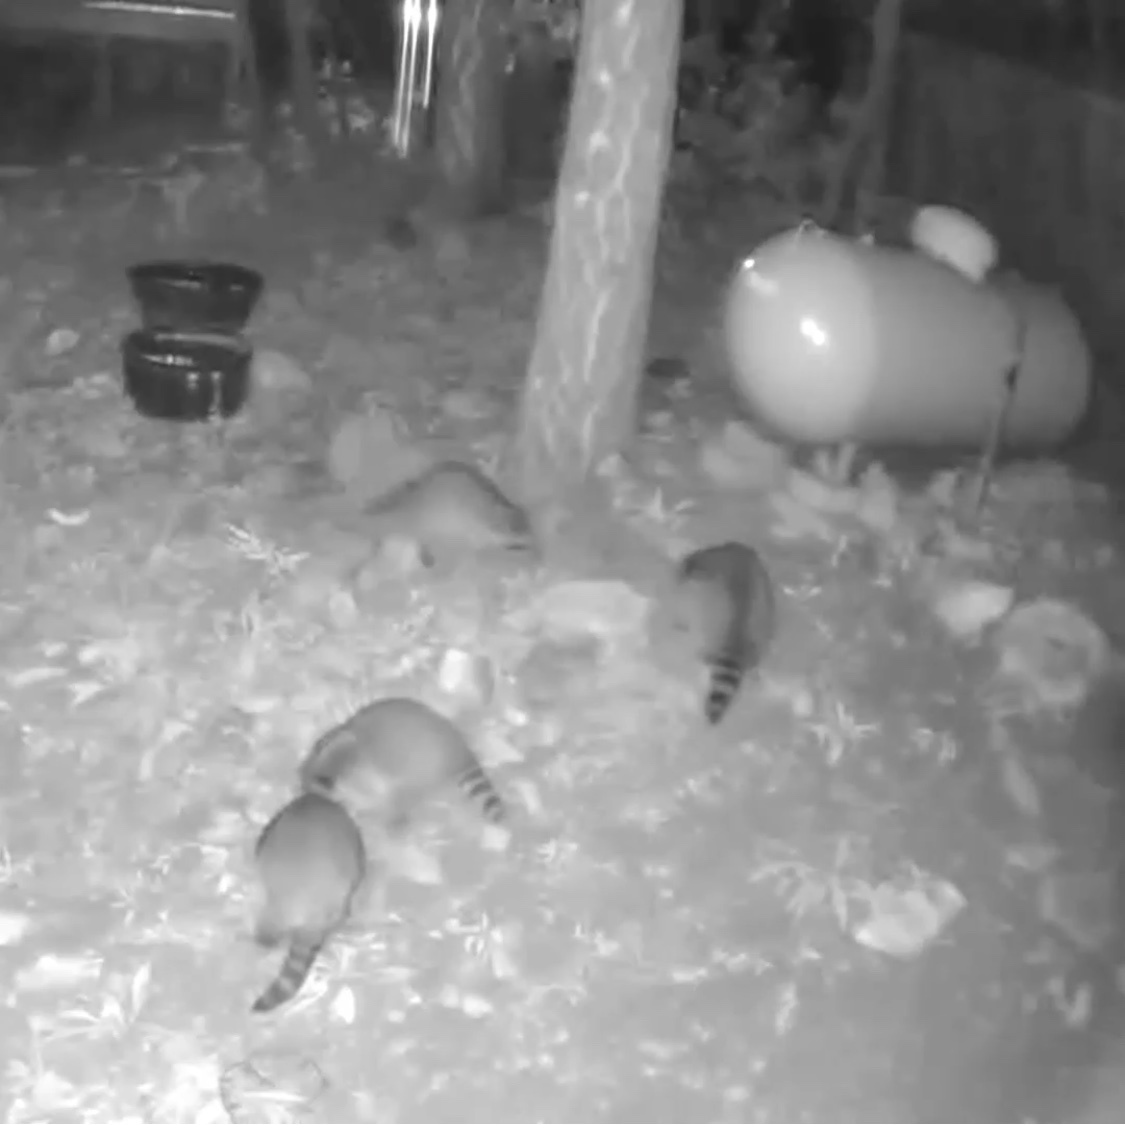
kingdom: Animalia
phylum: Chordata
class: Mammalia
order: Carnivora
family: Procyonidae
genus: Procyon
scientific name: Procyon lotor
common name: Raccoon
